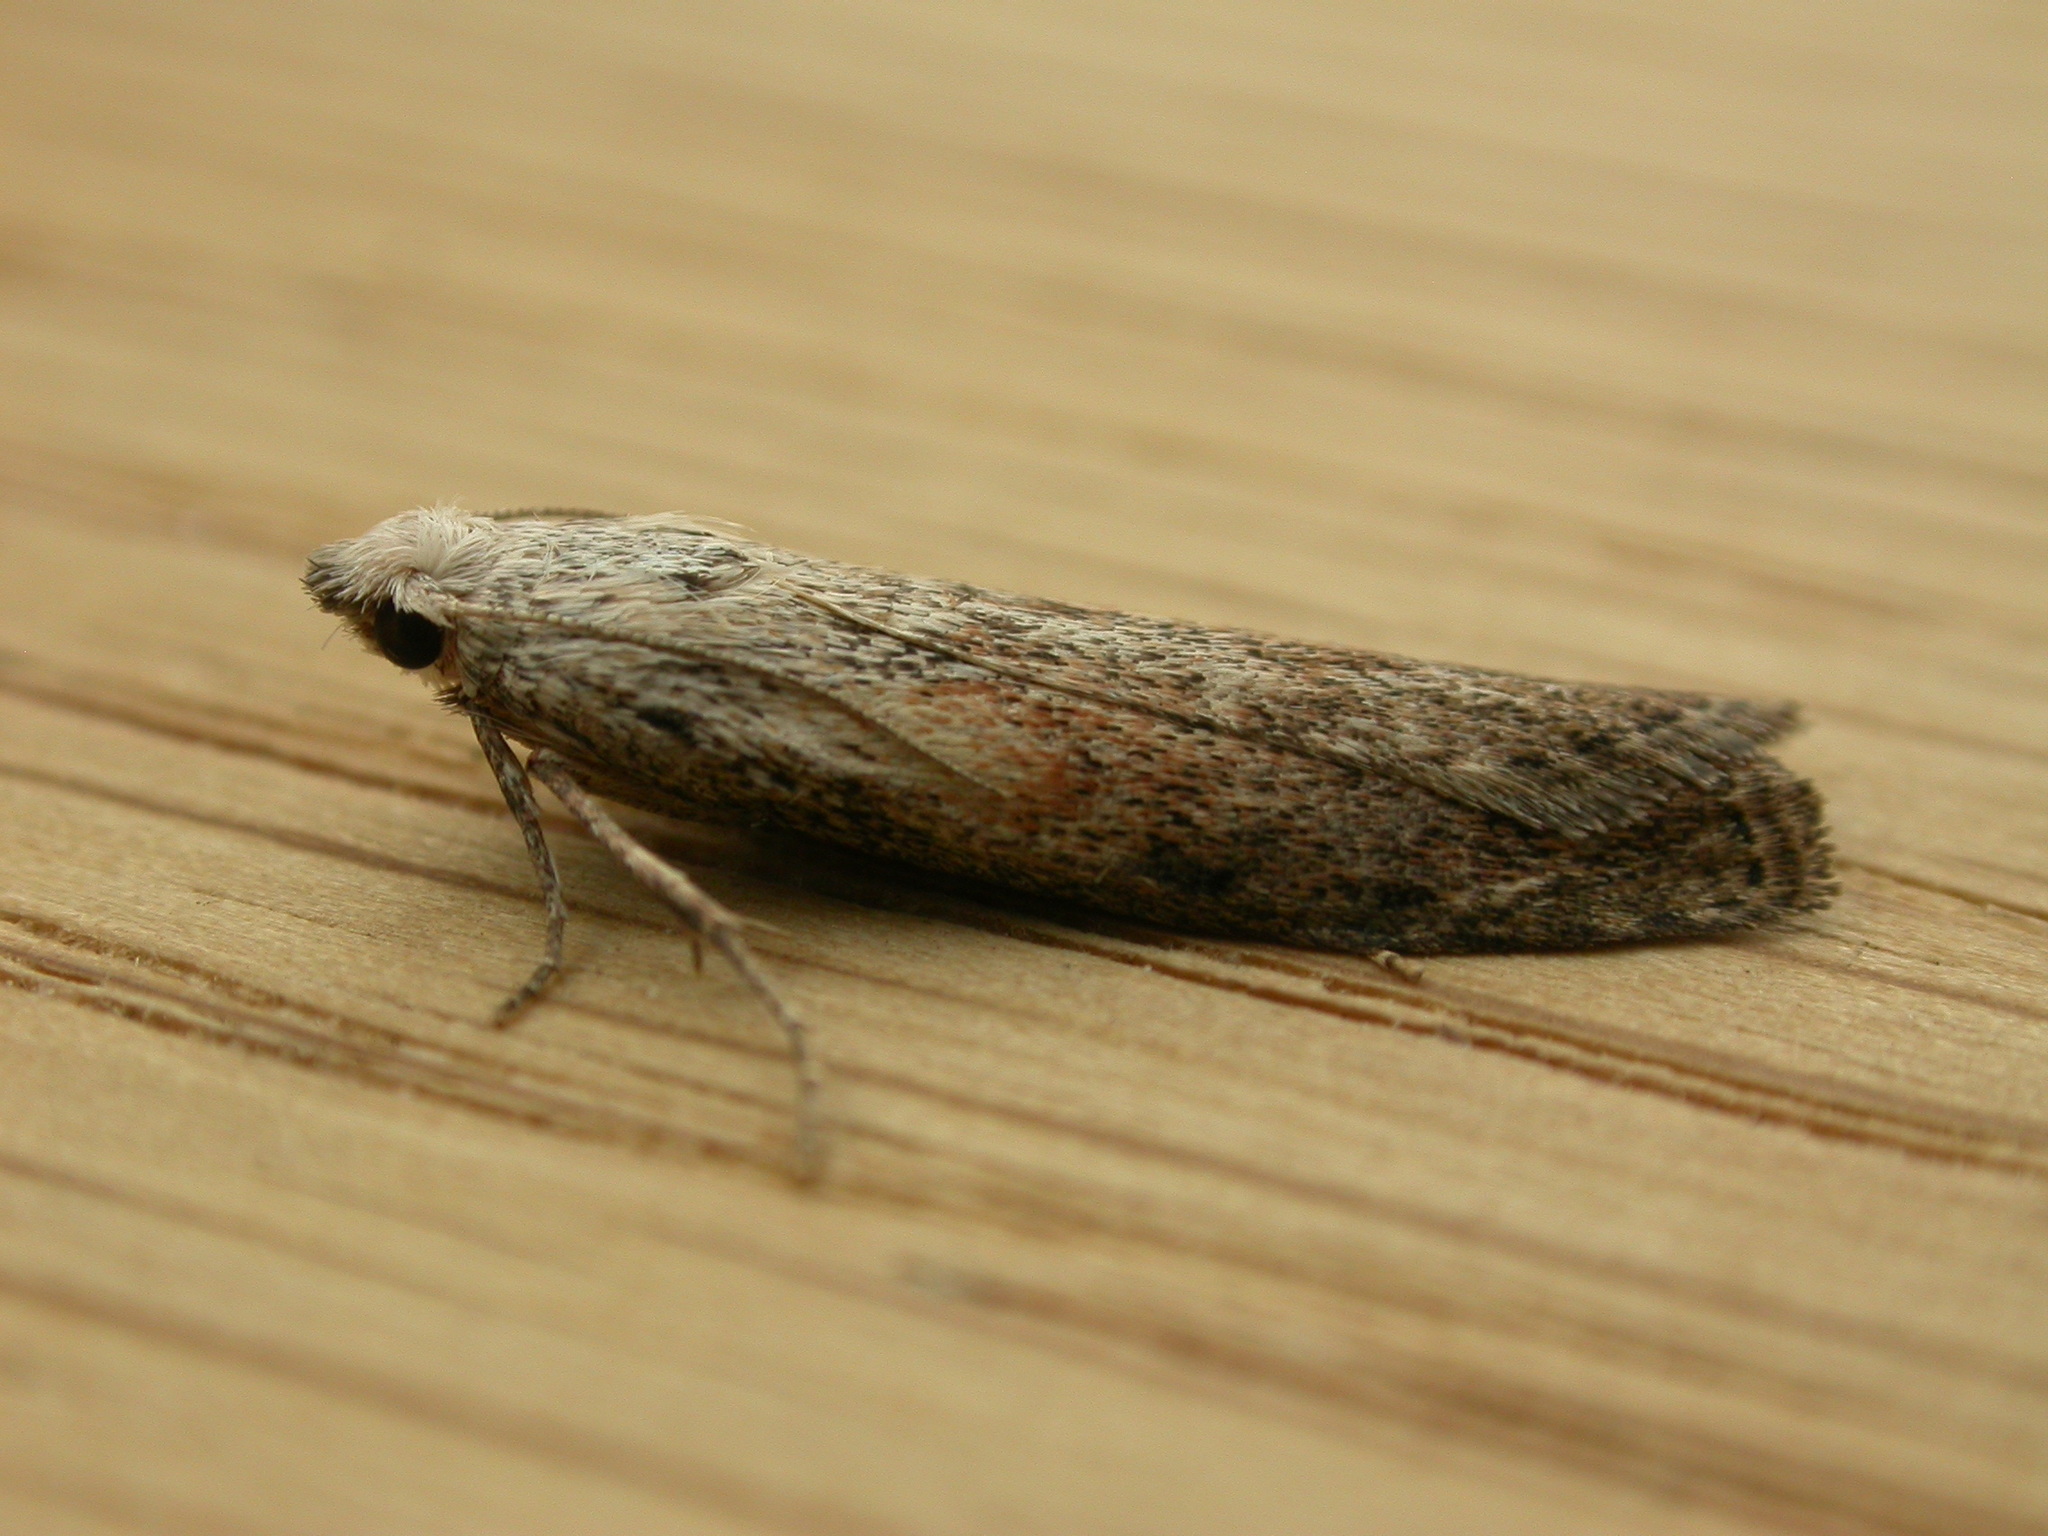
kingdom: Animalia
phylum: Arthropoda
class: Insecta
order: Lepidoptera
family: Pyralidae
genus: Aphomia
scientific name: Aphomia sociella
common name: Bee moth
